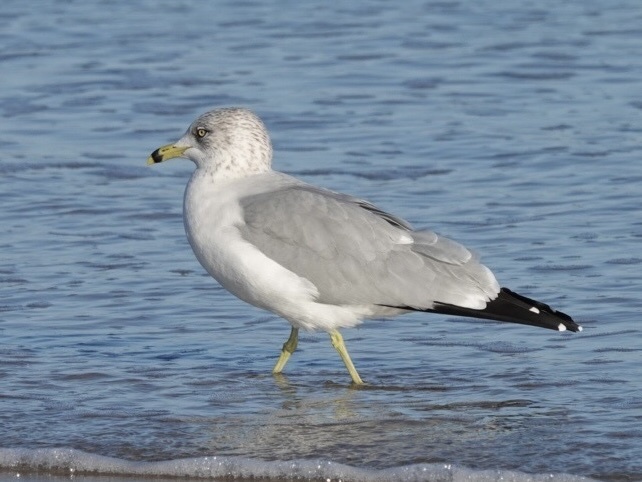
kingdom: Animalia
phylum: Chordata
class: Aves
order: Charadriiformes
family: Laridae
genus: Larus
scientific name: Larus delawarensis
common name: Ring-billed gull
